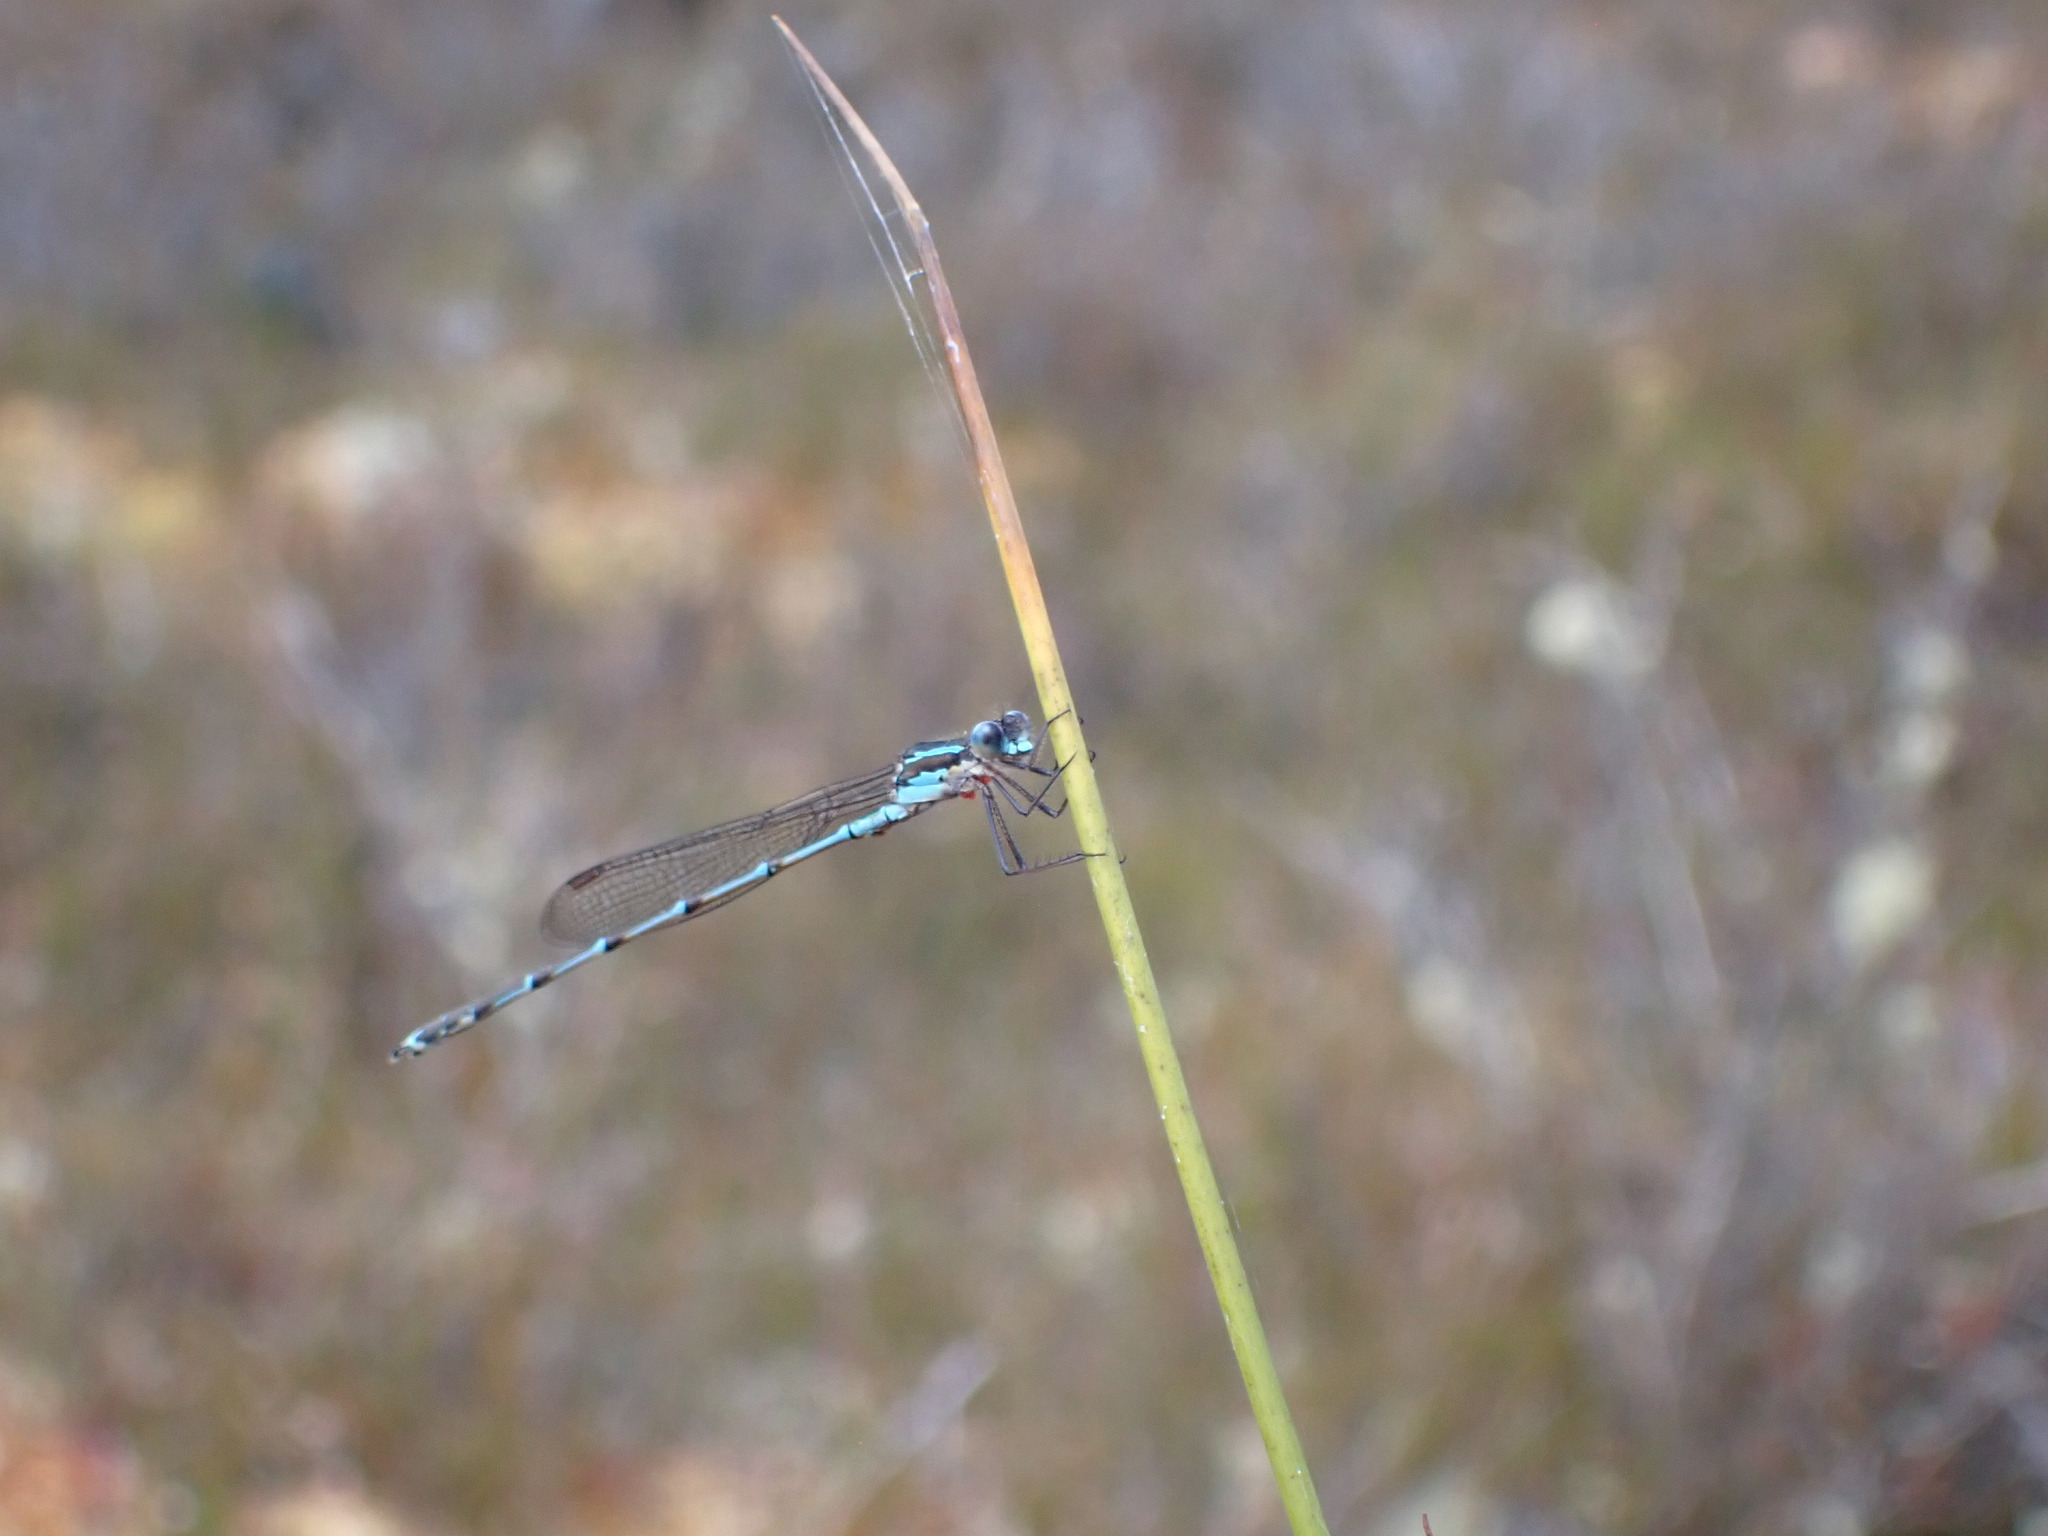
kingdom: Animalia
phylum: Arthropoda
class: Insecta
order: Odonata
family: Lestidae
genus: Austrolestes
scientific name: Austrolestes colensonis
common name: Blue damselfly
